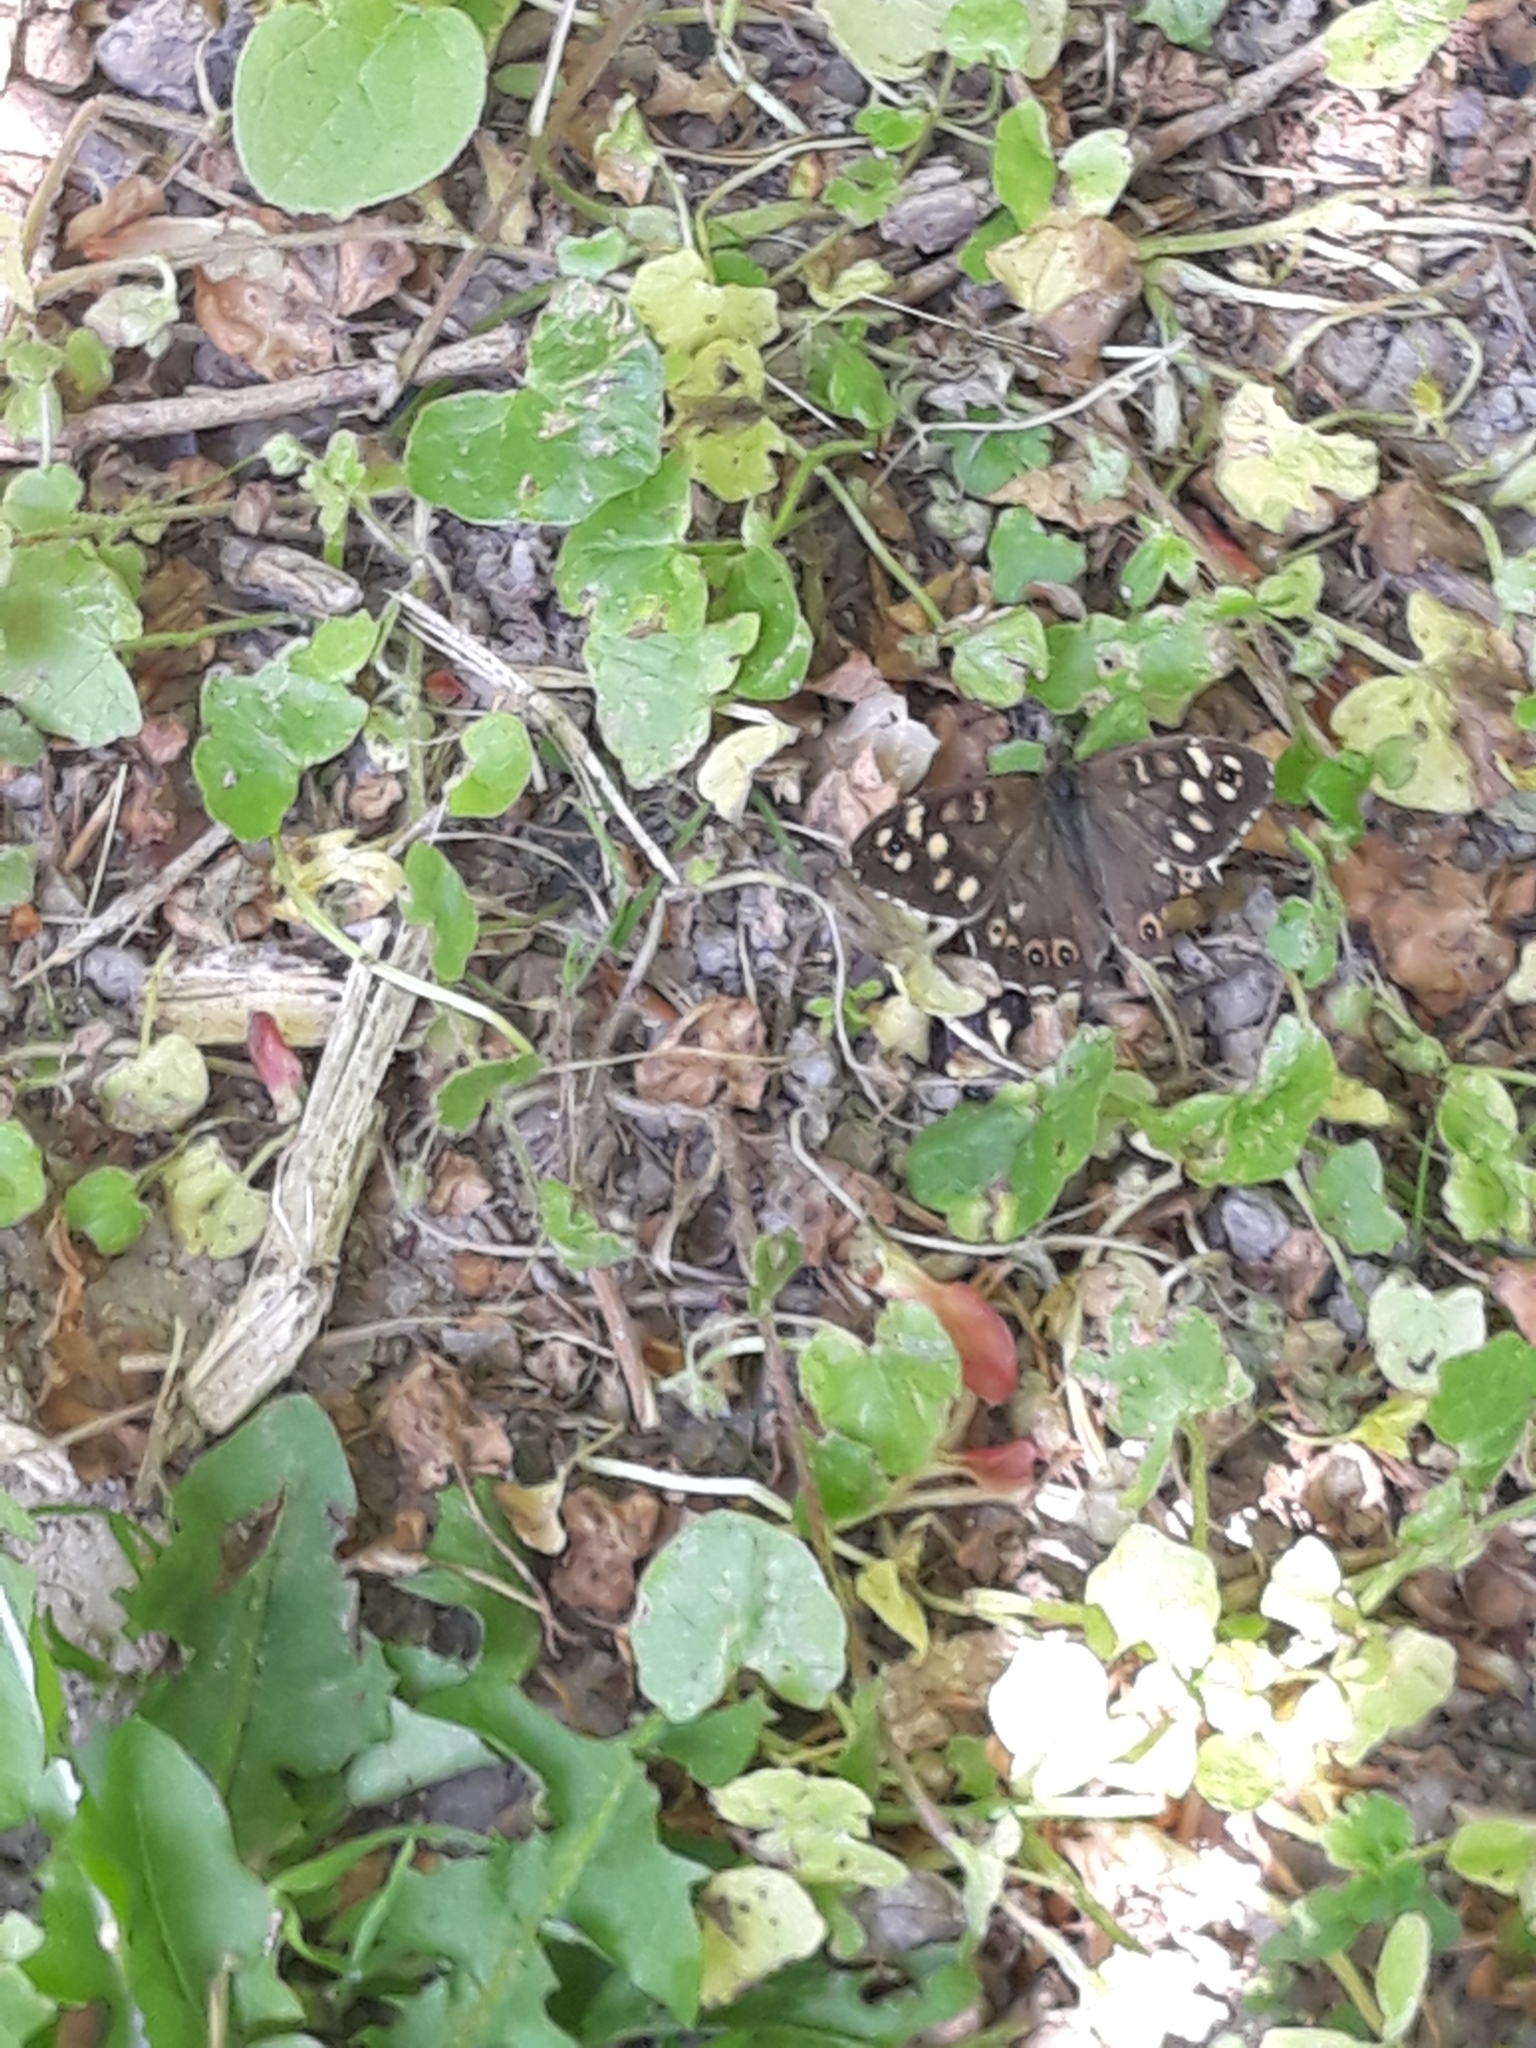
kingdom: Animalia
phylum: Arthropoda
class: Insecta
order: Lepidoptera
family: Nymphalidae
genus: Pararge
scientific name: Pararge aegeria
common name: Speckled wood
